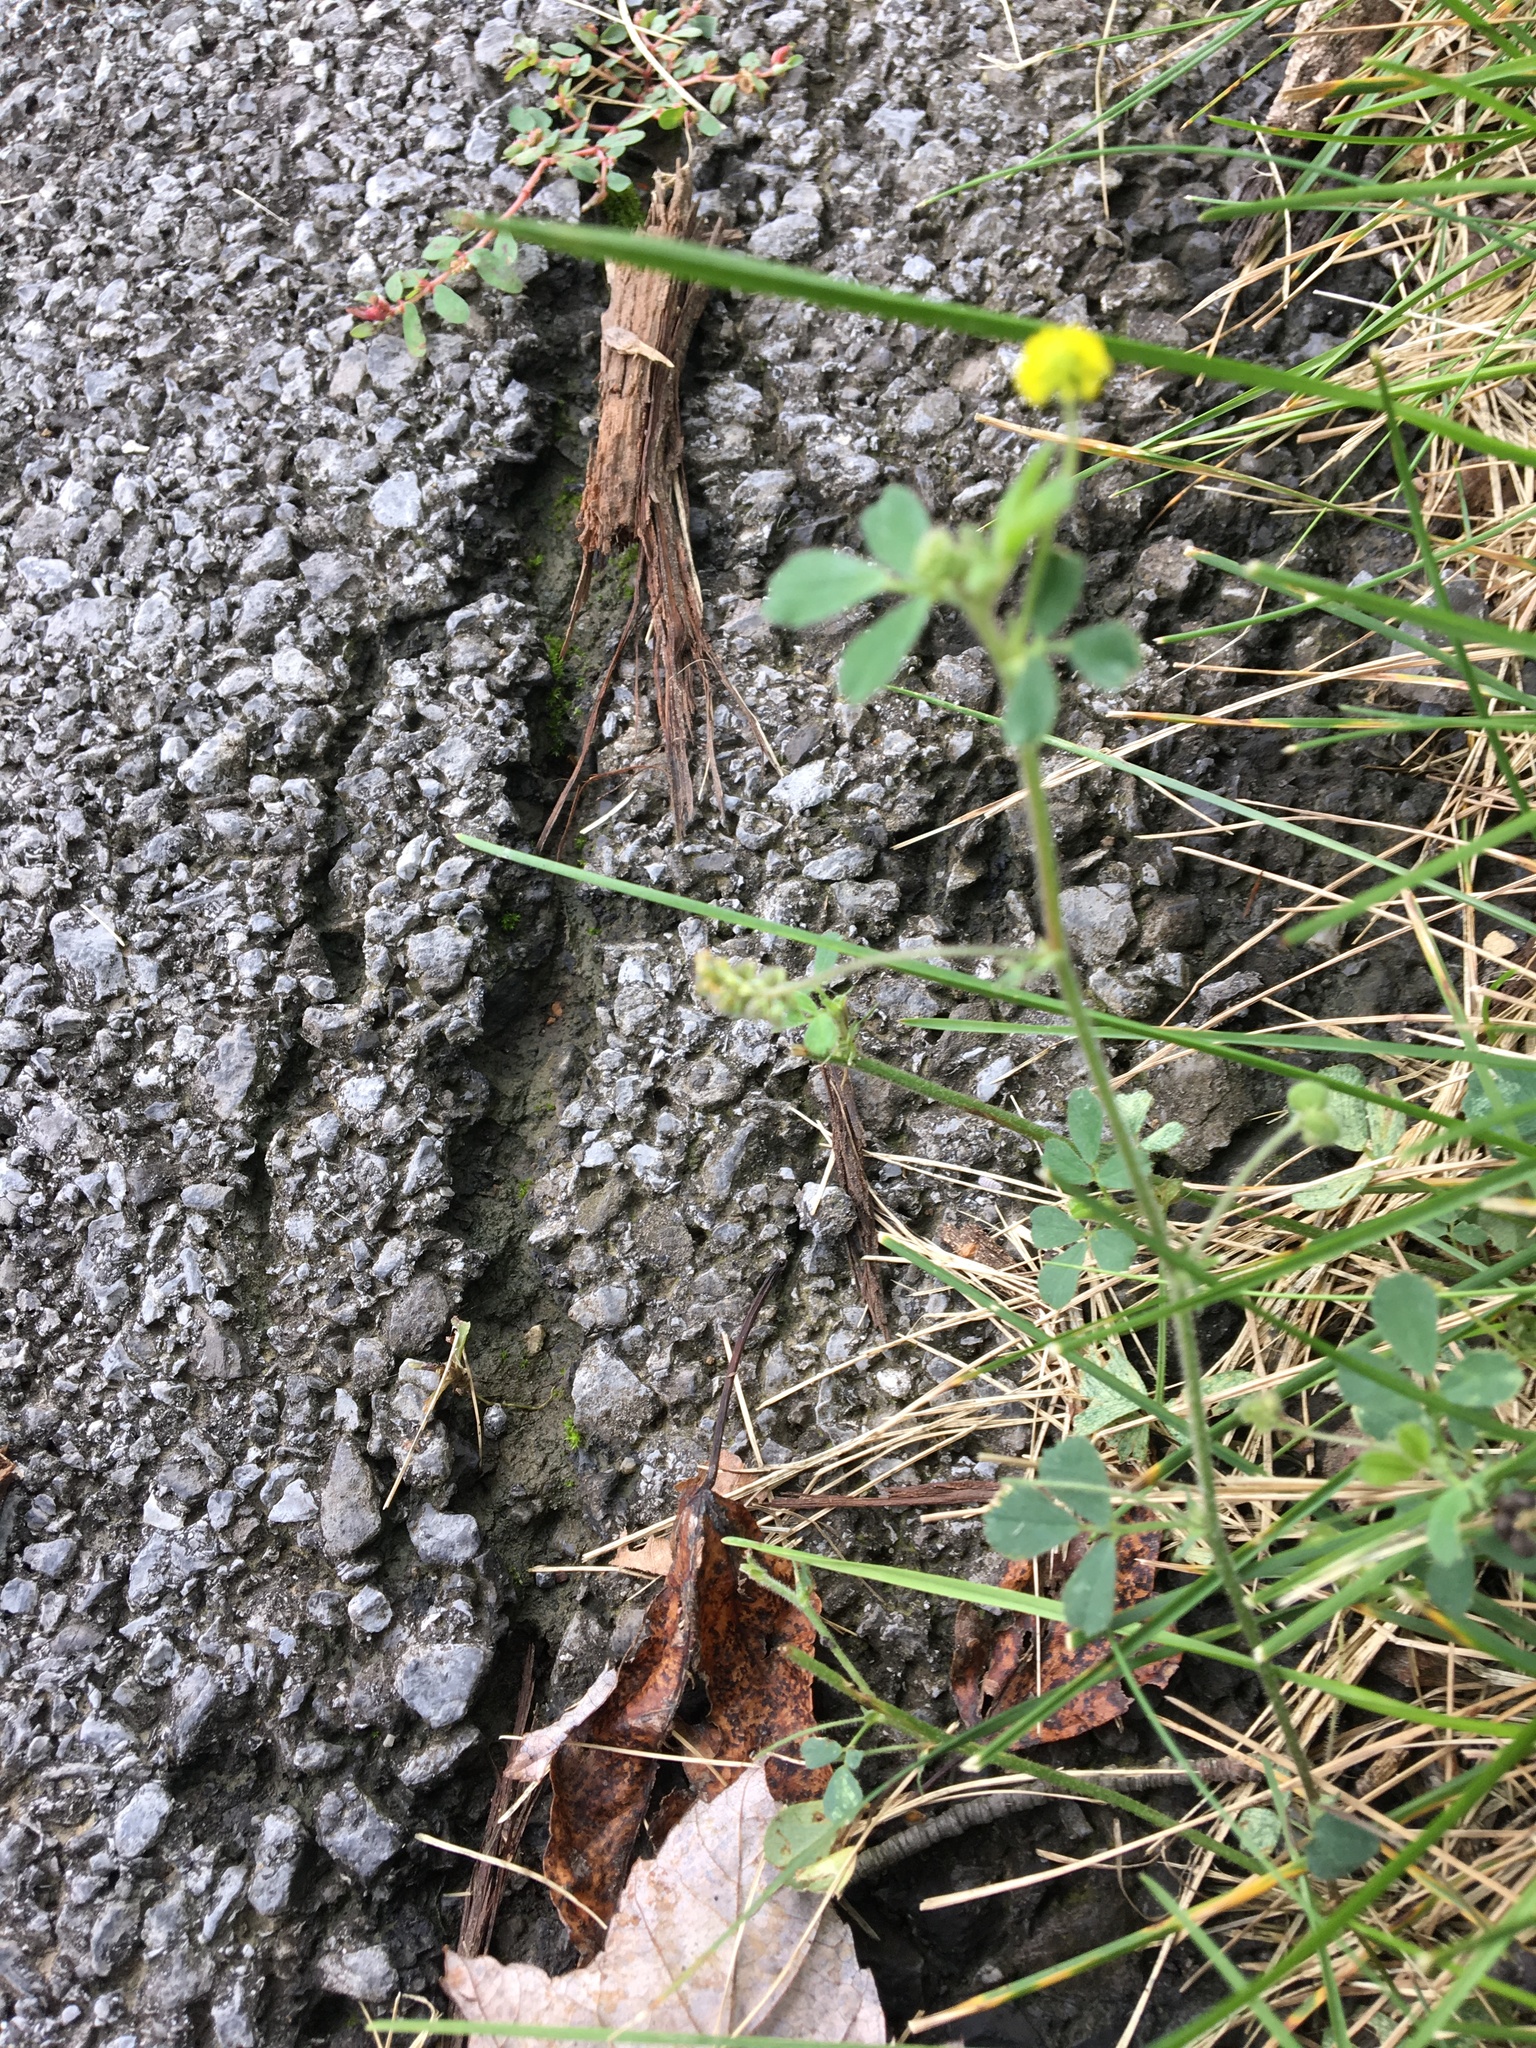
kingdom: Plantae
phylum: Tracheophyta
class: Magnoliopsida
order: Fabales
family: Fabaceae
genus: Medicago
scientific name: Medicago lupulina
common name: Black medick
